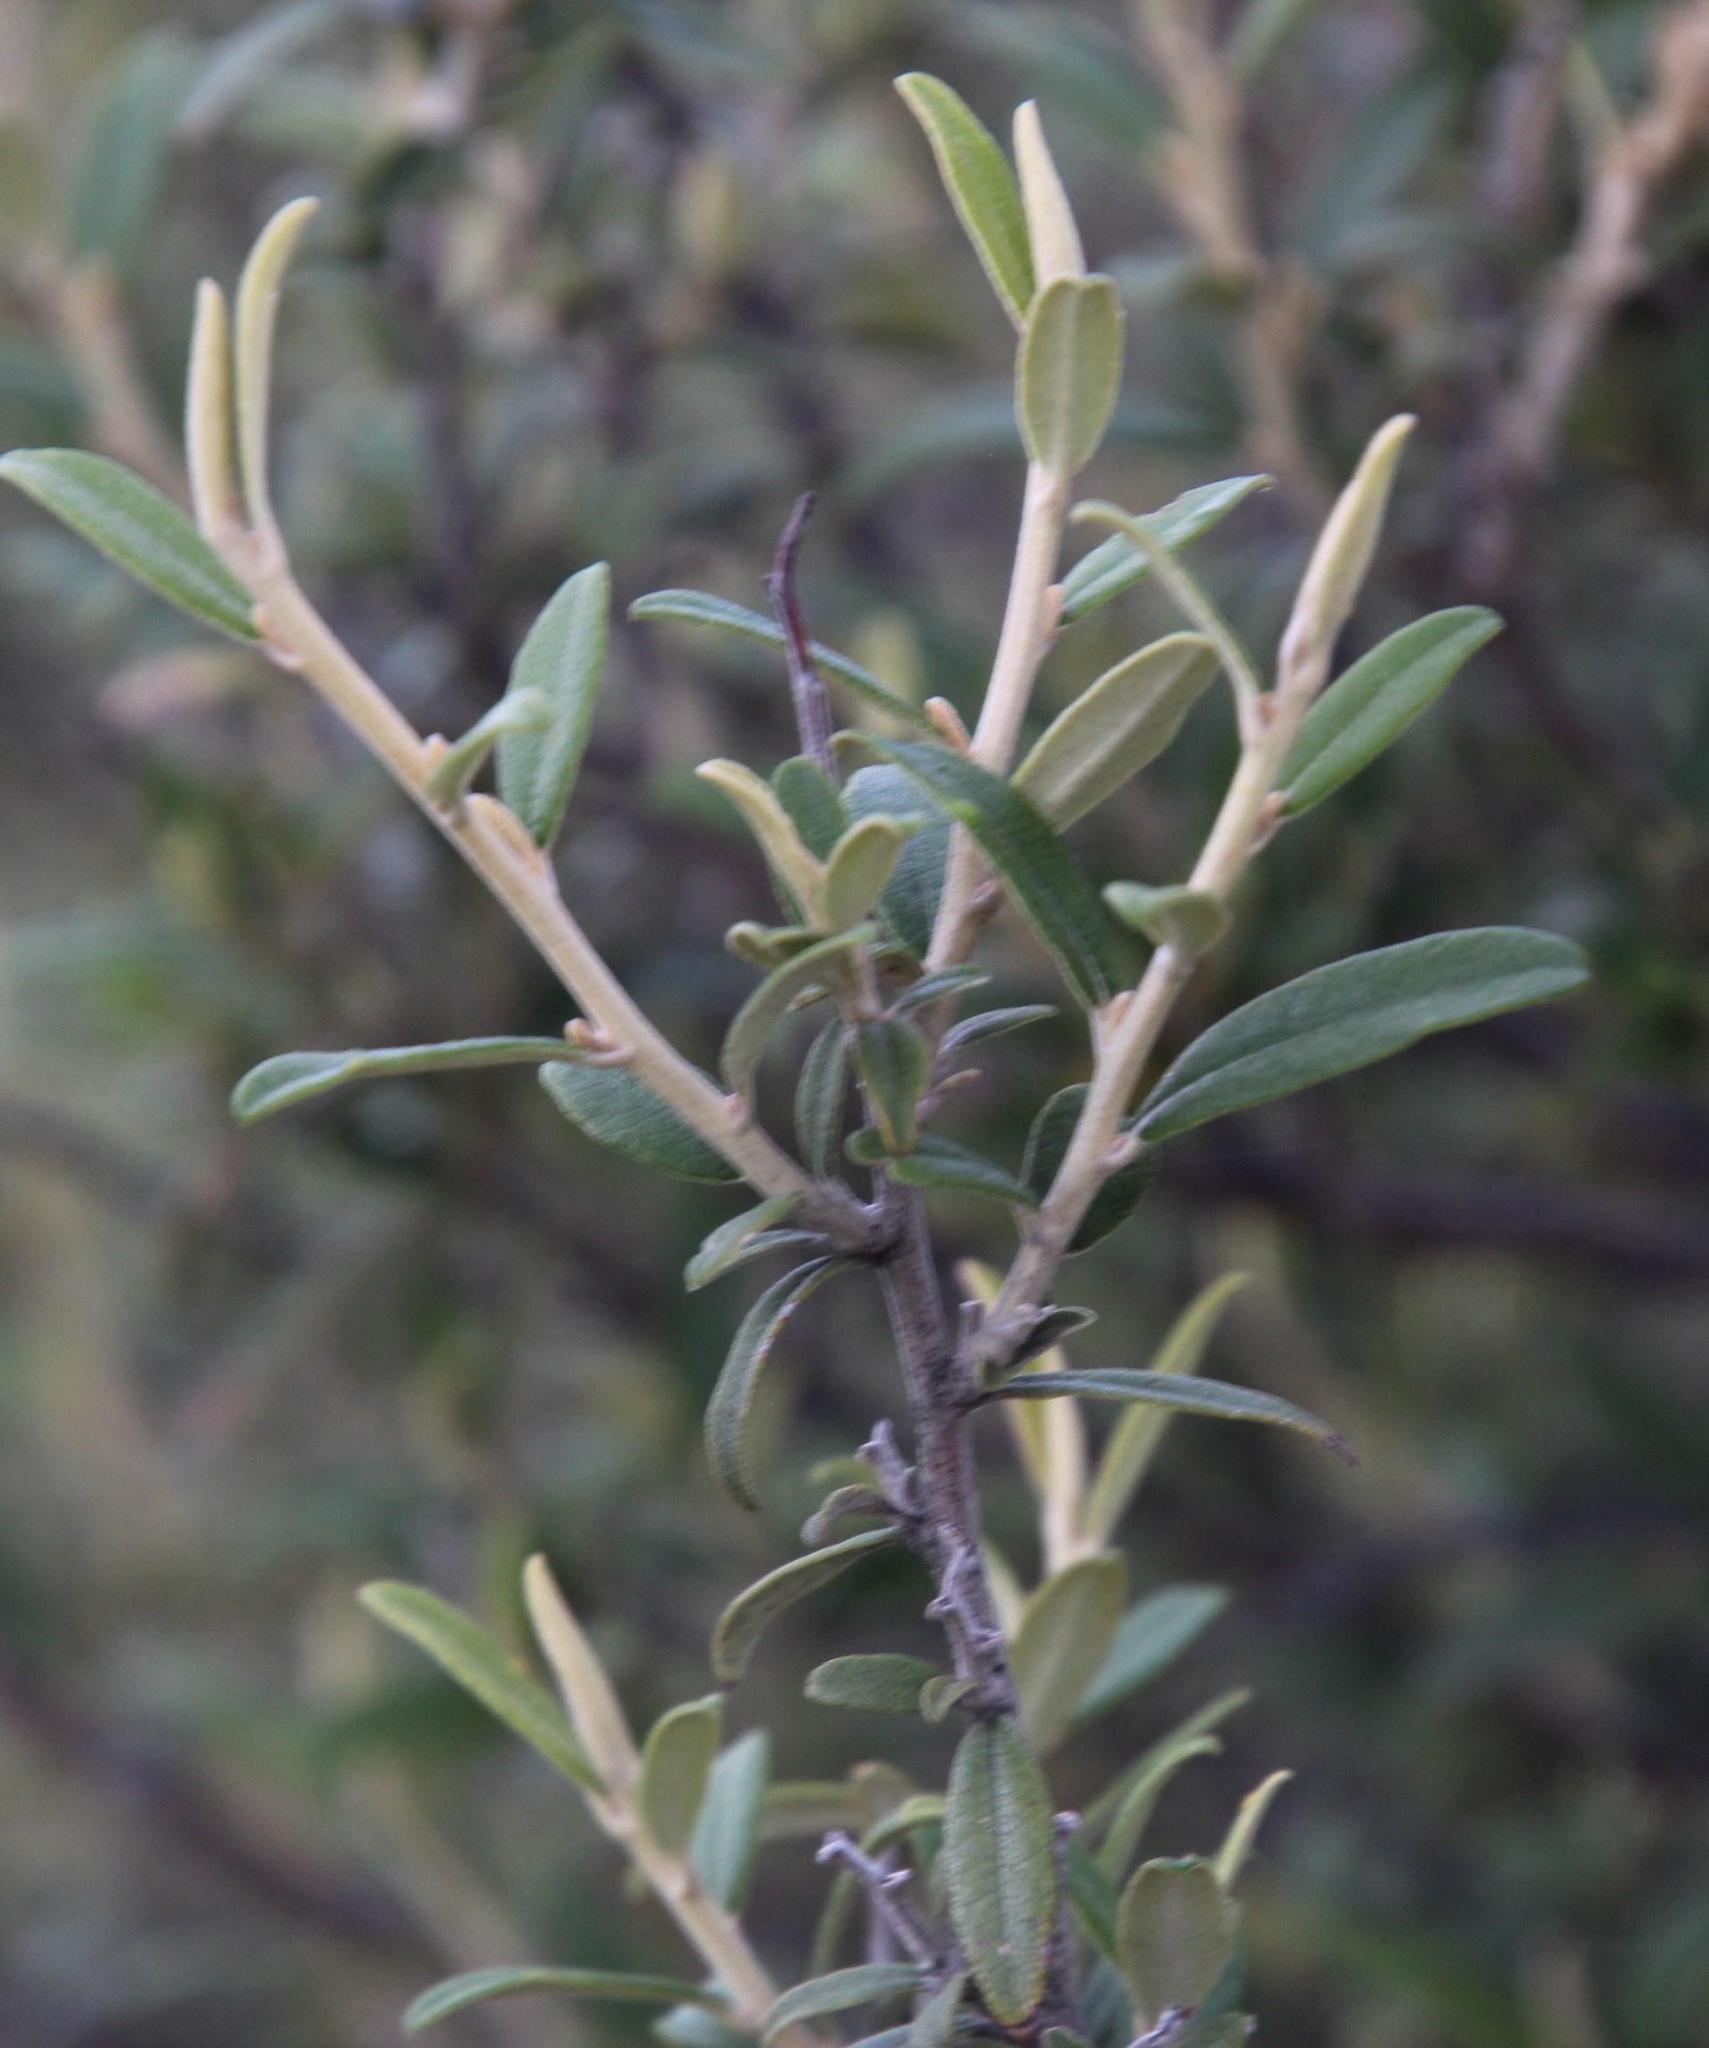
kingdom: Plantae
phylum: Tracheophyta
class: Magnoliopsida
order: Asterales
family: Asteraceae
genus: Tarchonanthus
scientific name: Tarchonanthus minor
